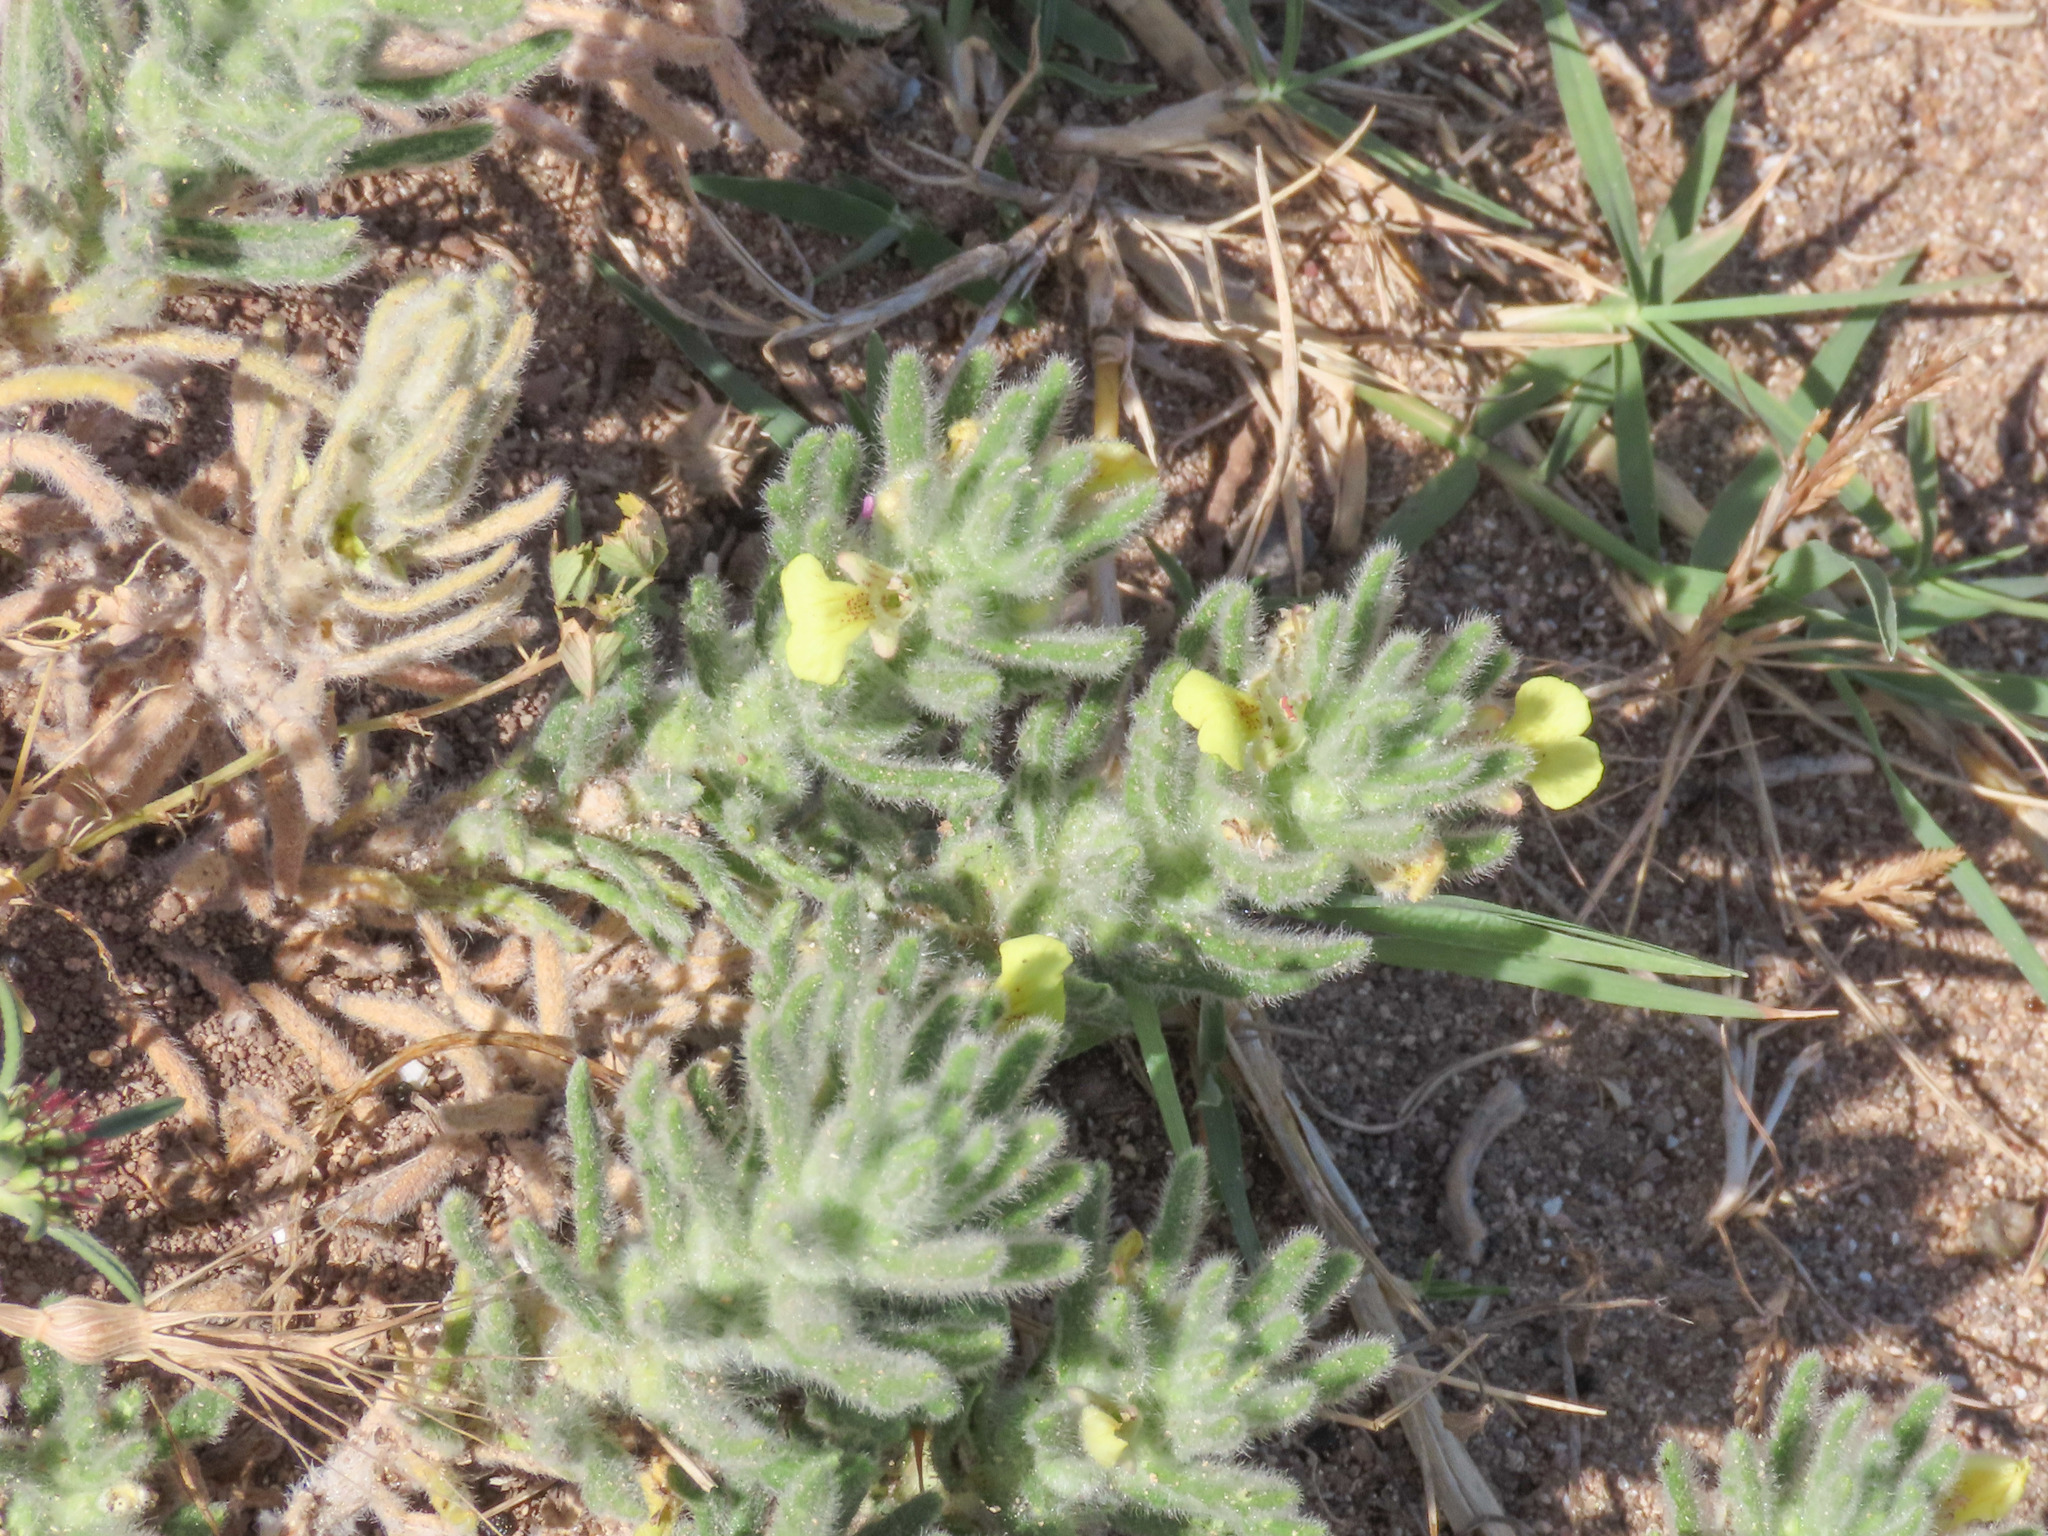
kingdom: Plantae
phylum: Tracheophyta
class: Magnoliopsida
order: Lamiales
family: Lamiaceae
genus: Ajuga
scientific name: Ajuga iva
